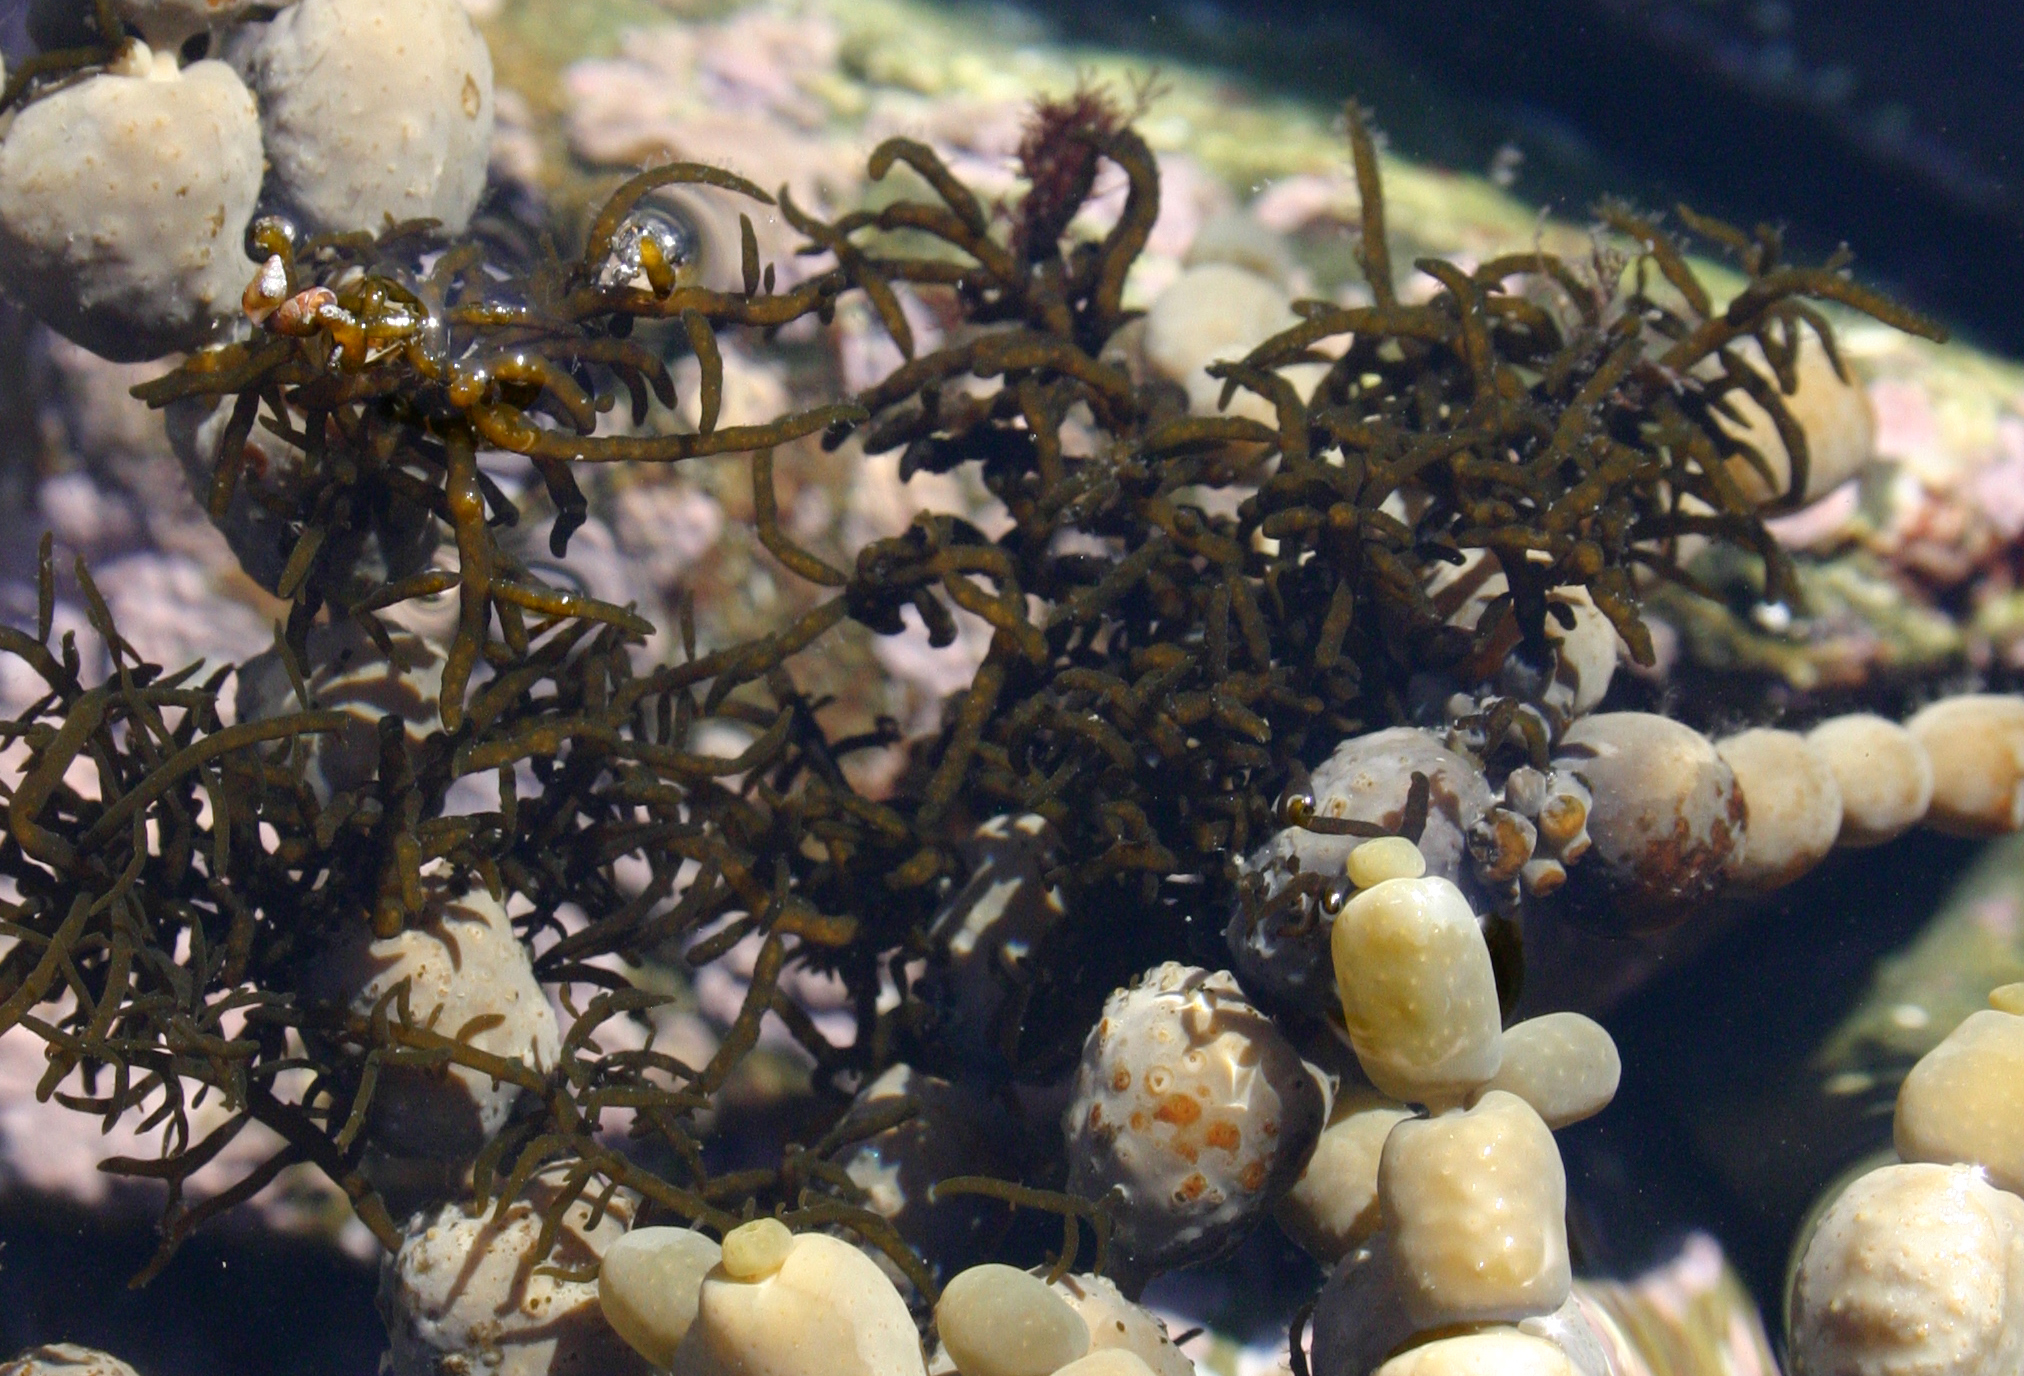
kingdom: Chromista
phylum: Ochrophyta
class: Phaeophyceae
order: Fucales
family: Notheiaceae
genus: Notheia
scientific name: Notheia anomala
